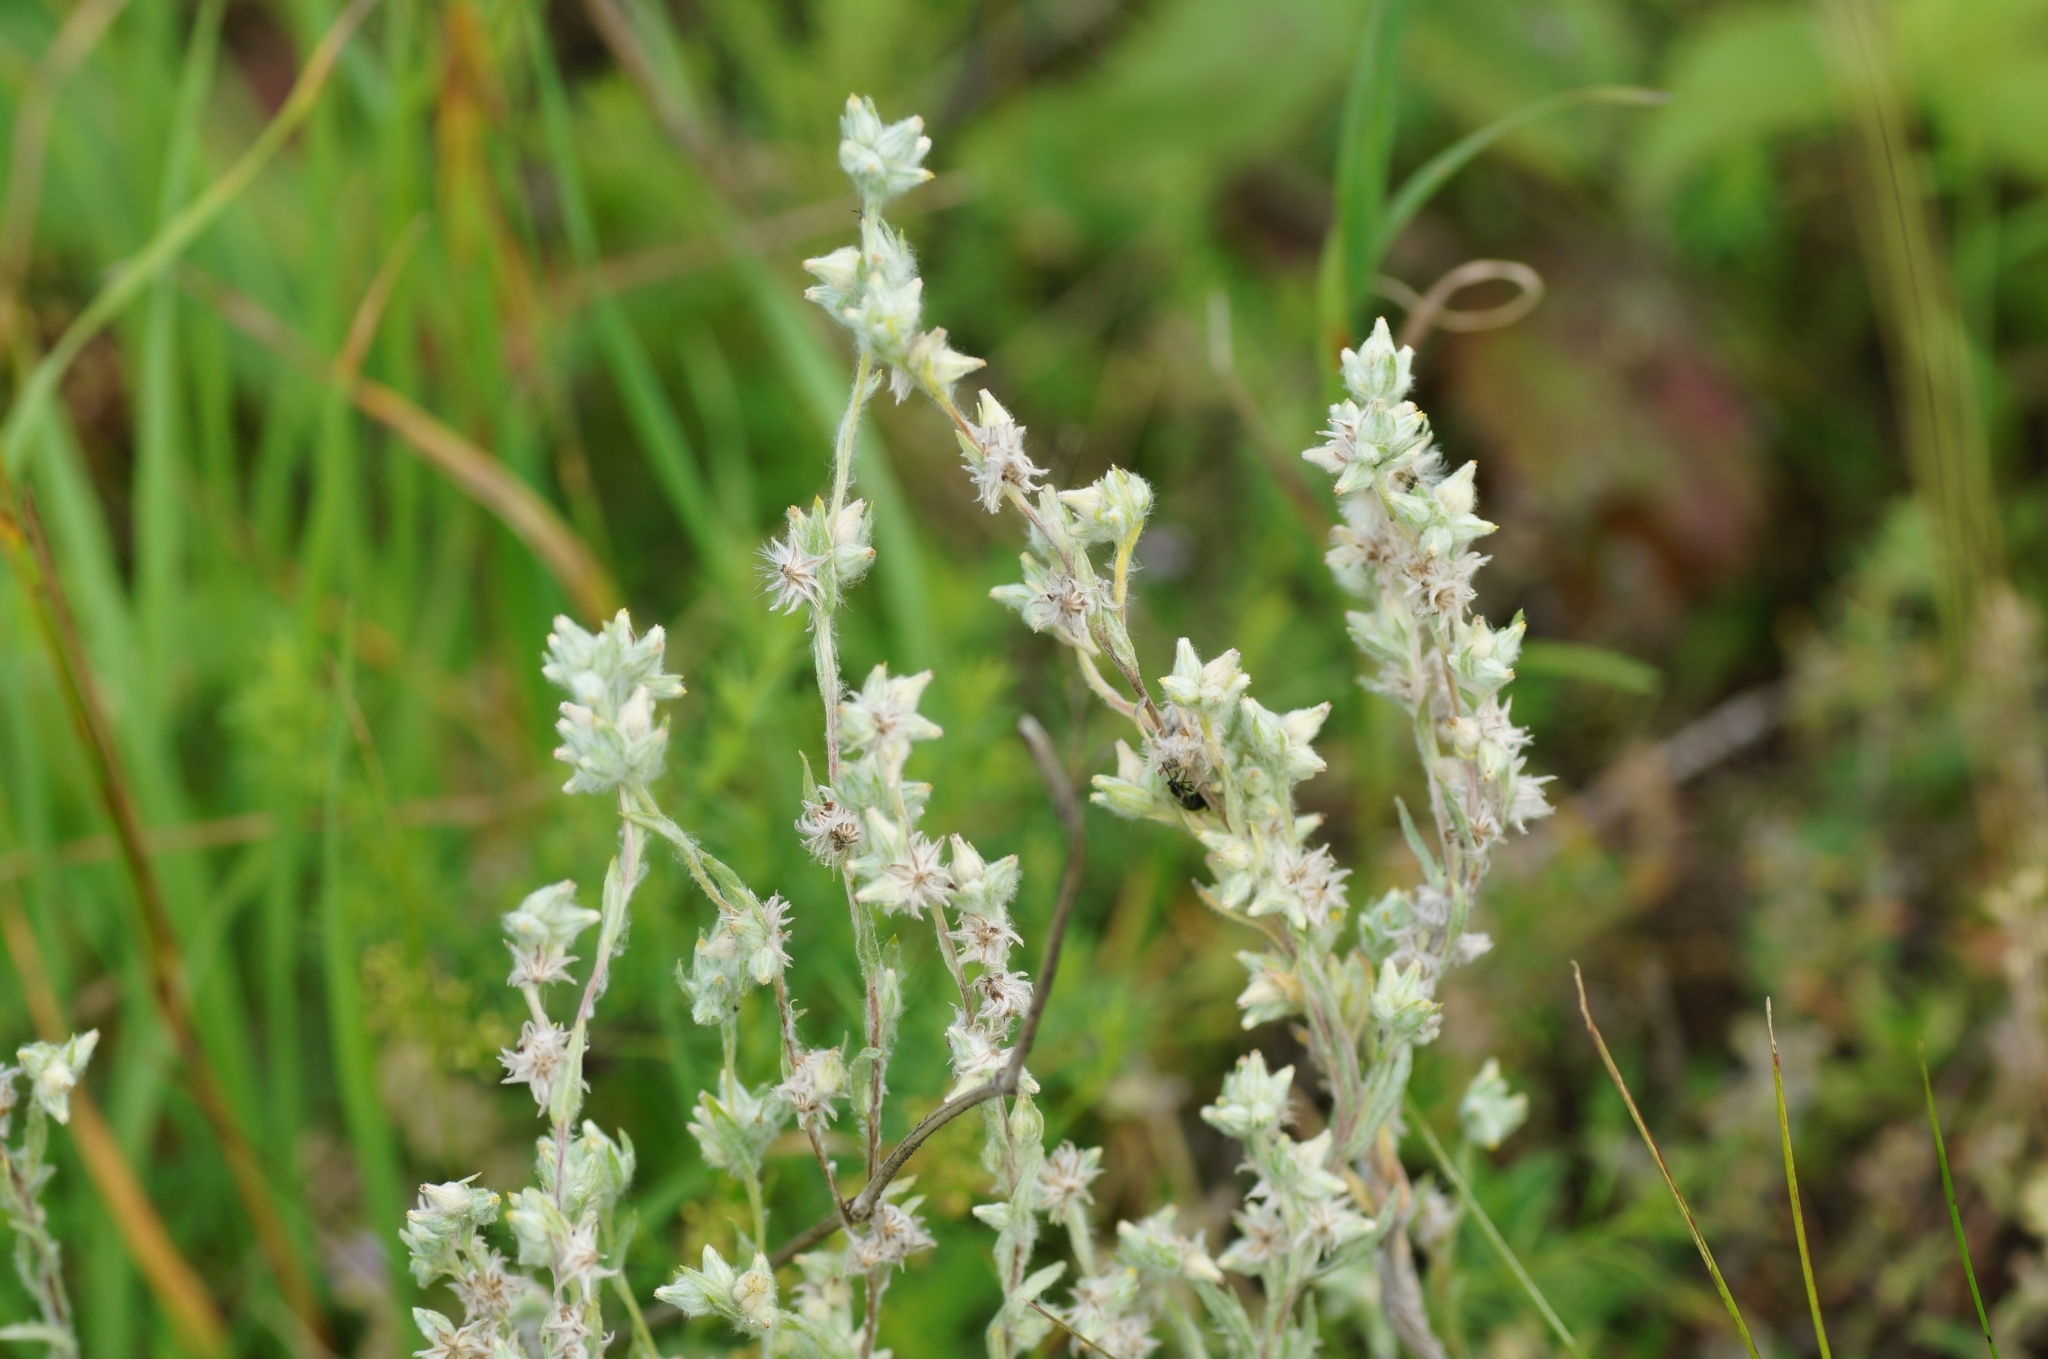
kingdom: Plantae
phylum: Tracheophyta
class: Magnoliopsida
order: Asterales
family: Asteraceae
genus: Filago
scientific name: Filago arvensis
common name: Field cudweed
